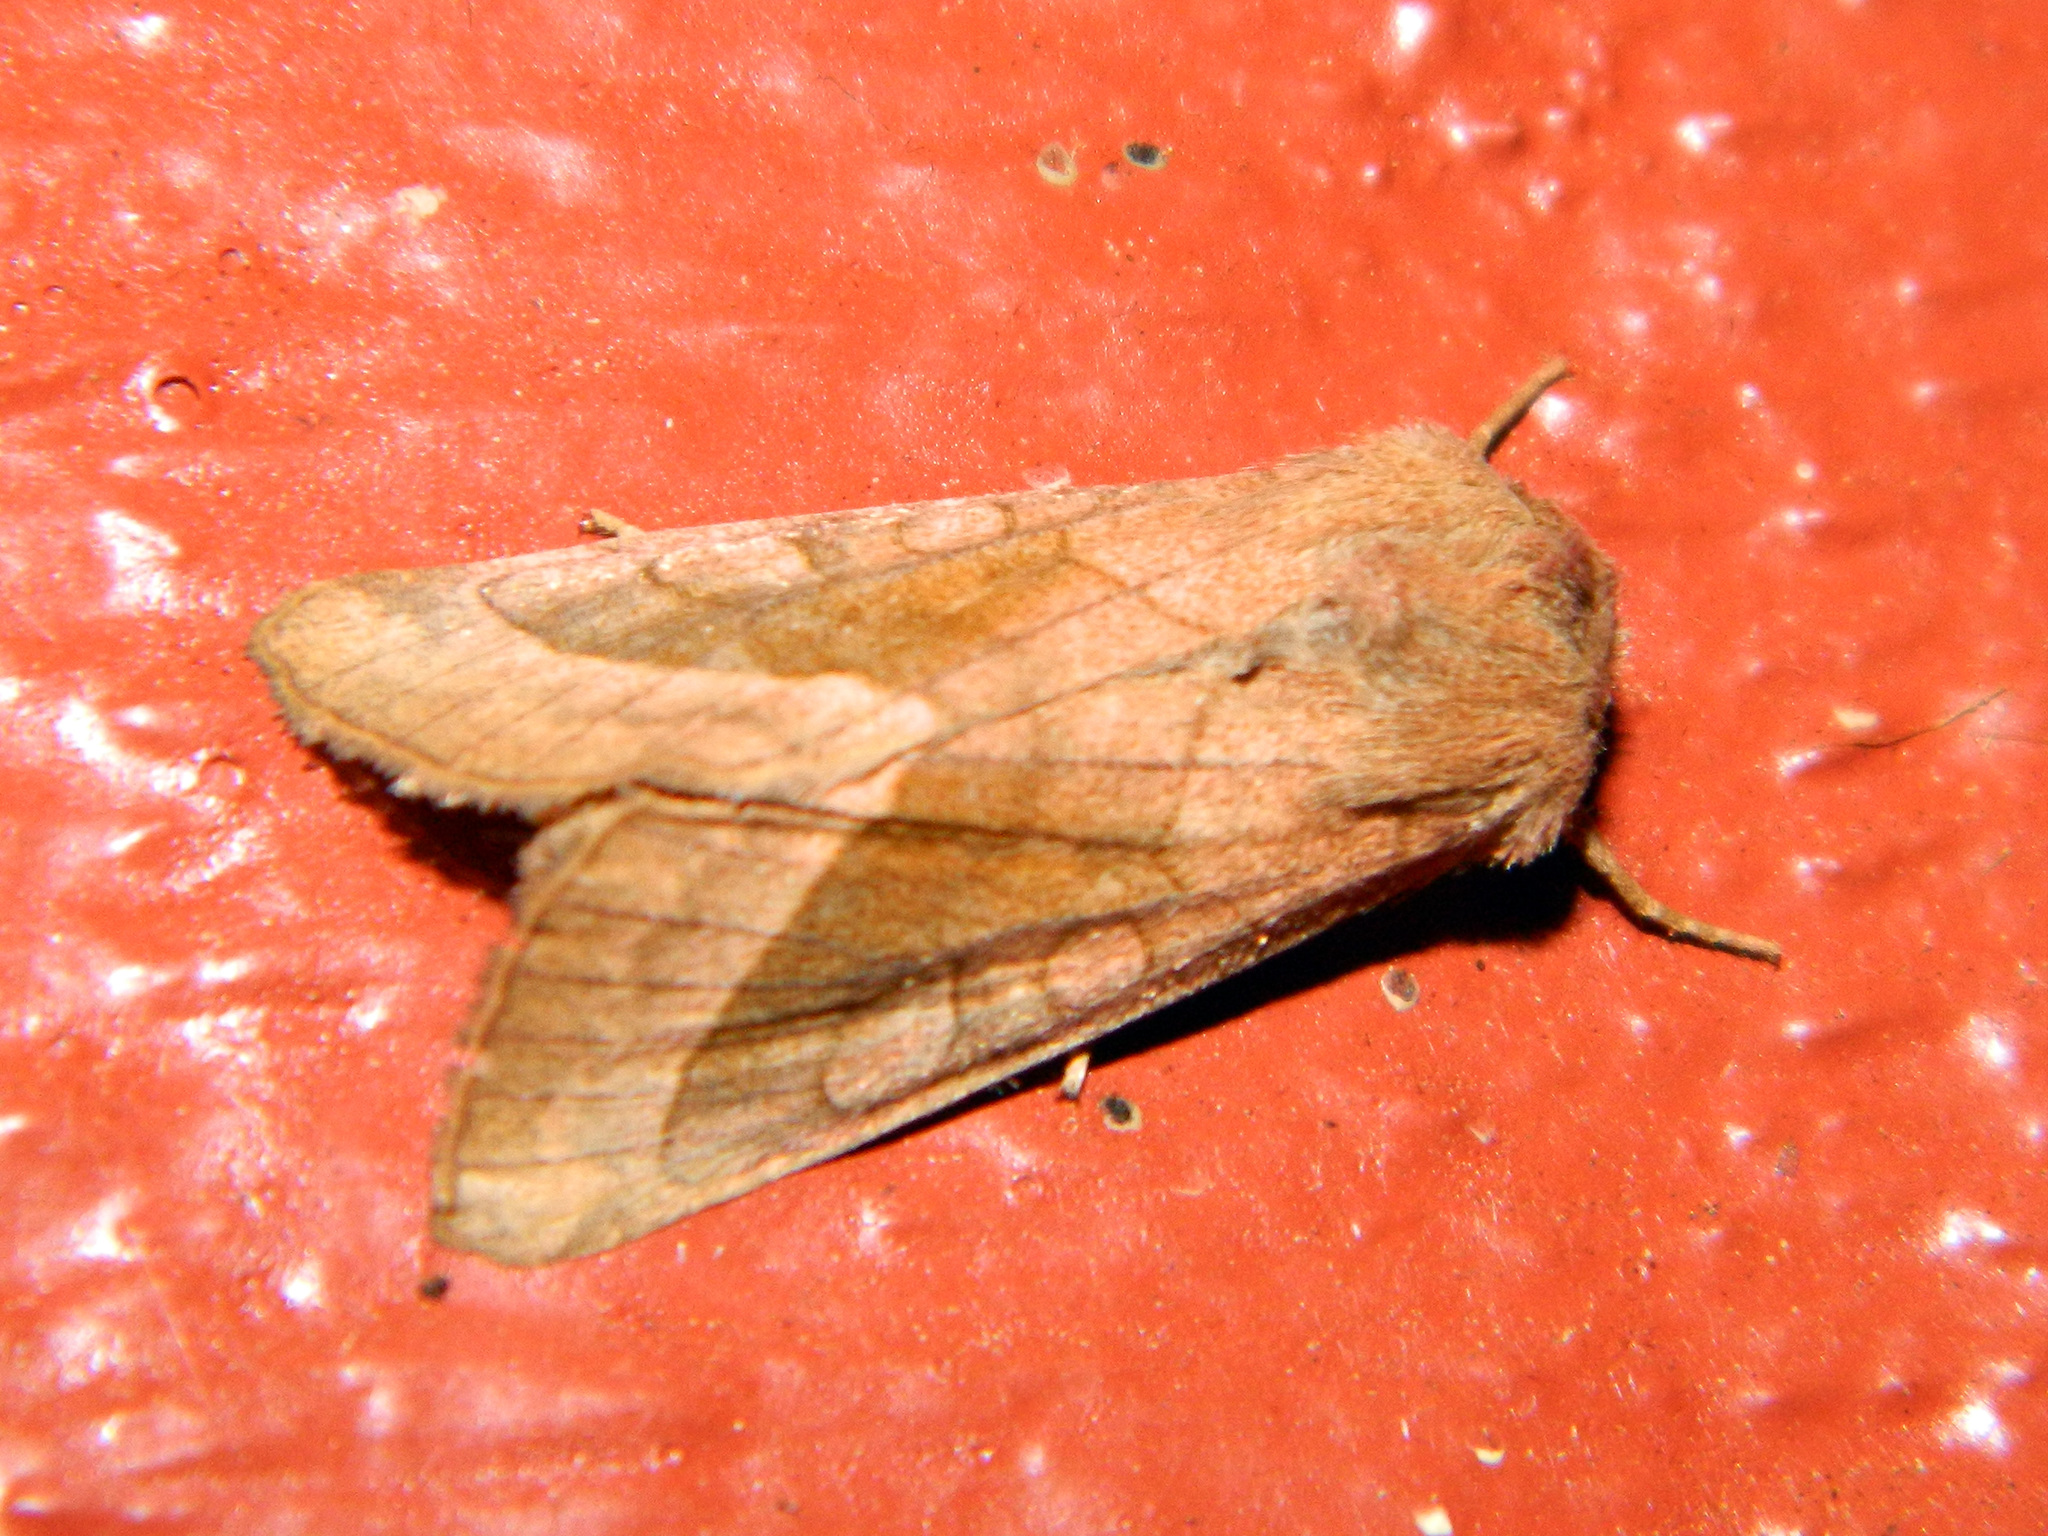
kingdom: Animalia
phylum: Arthropoda
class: Insecta
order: Lepidoptera
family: Noctuidae
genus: Hydraecia
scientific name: Hydraecia micacea
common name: Rosy rustic
